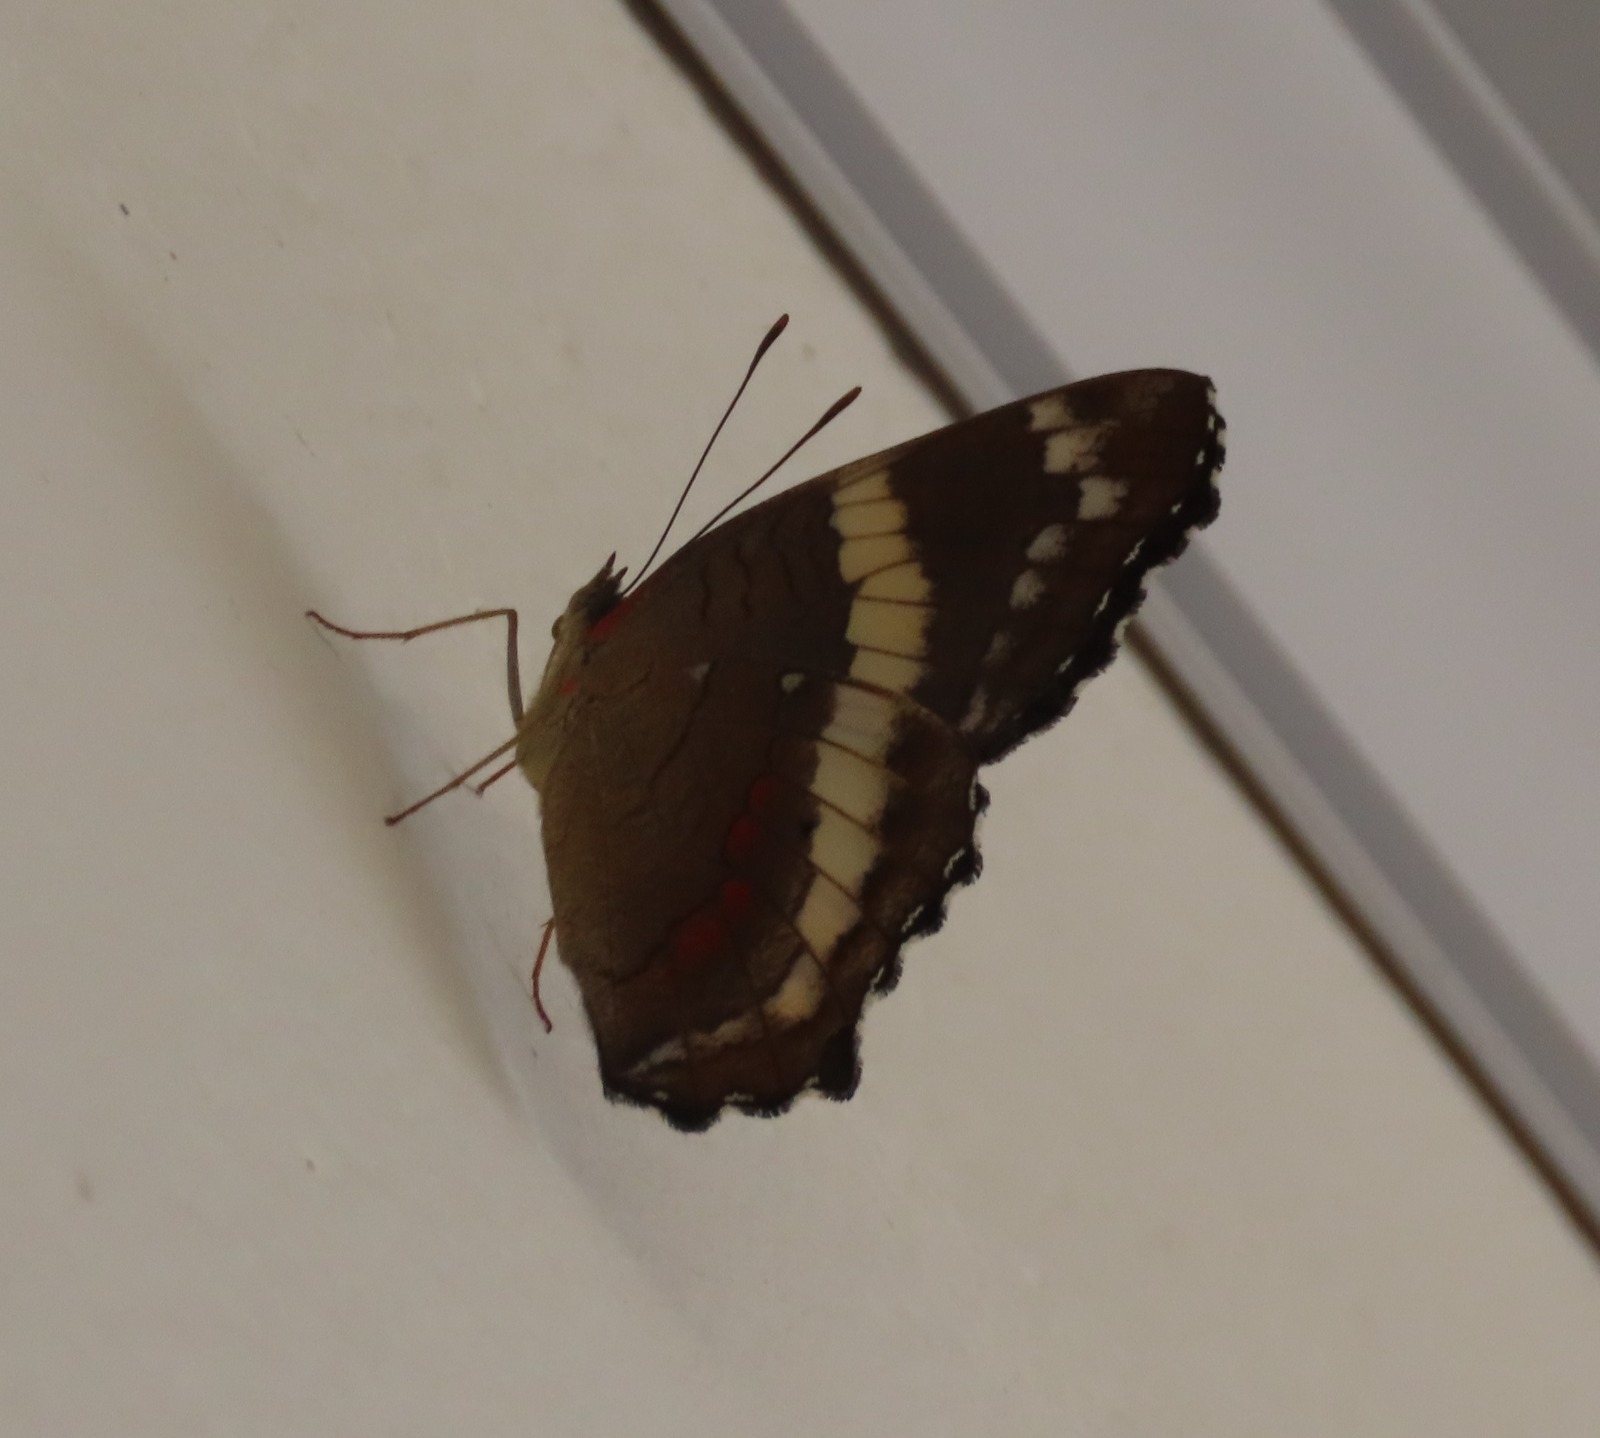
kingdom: Animalia
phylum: Arthropoda
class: Insecta
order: Lepidoptera
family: Nymphalidae
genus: Anartia
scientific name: Anartia fatima
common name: Banded peacock
